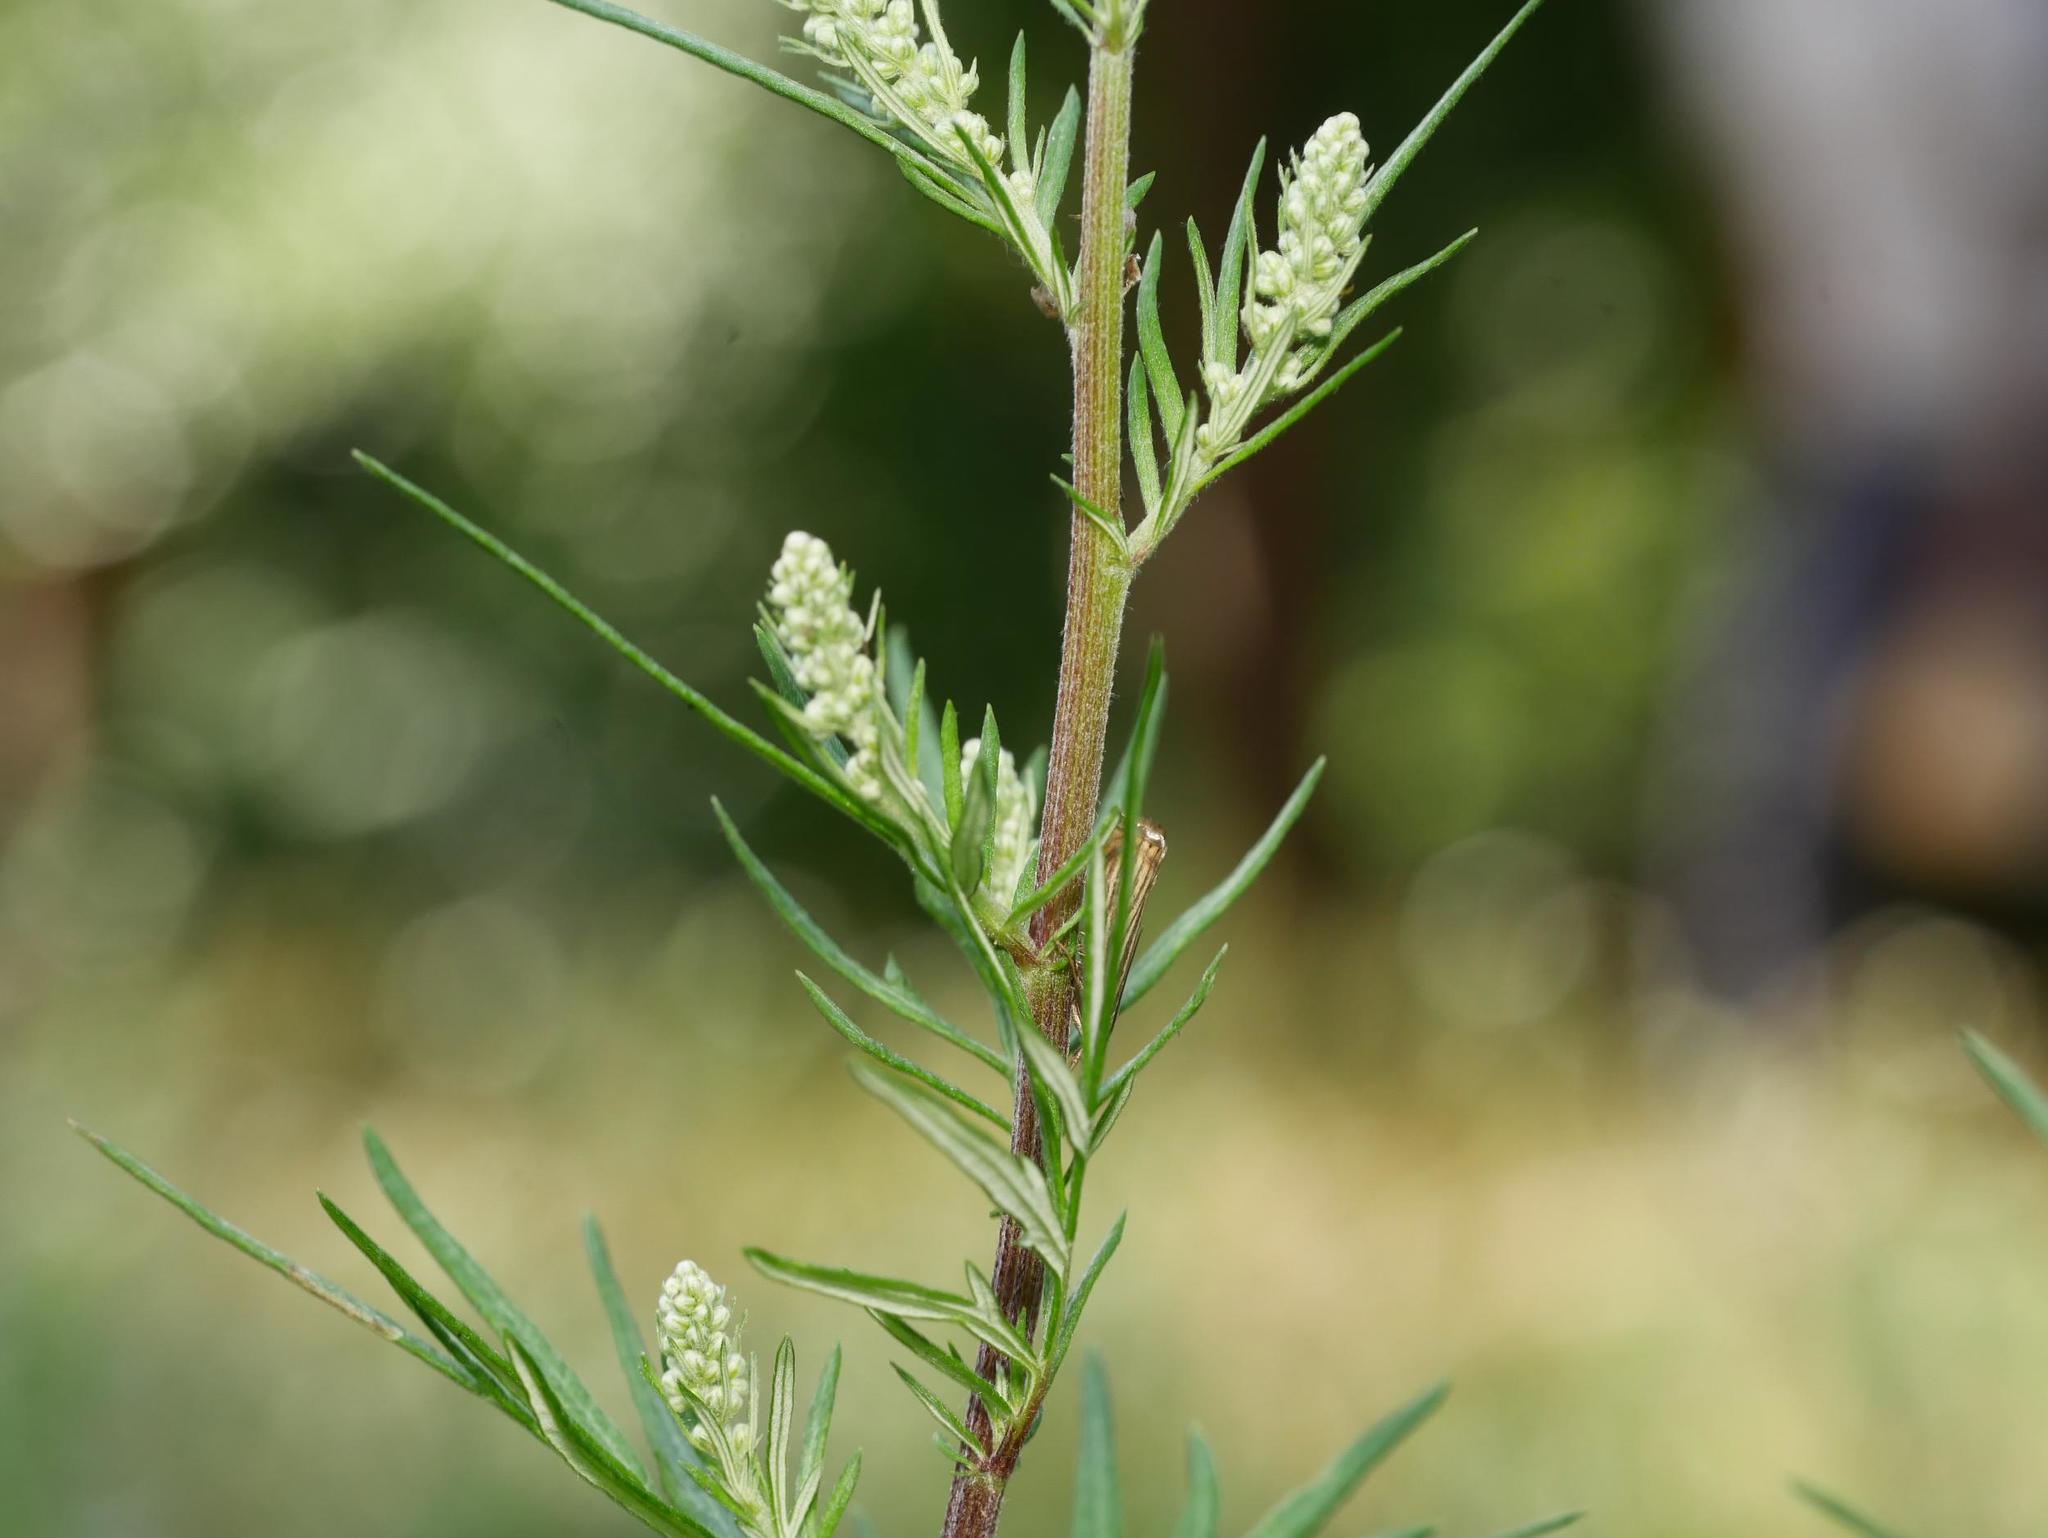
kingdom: Plantae
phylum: Tracheophyta
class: Magnoliopsida
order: Asterales
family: Asteraceae
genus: Artemisia
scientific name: Artemisia vulgaris
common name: Mugwort
